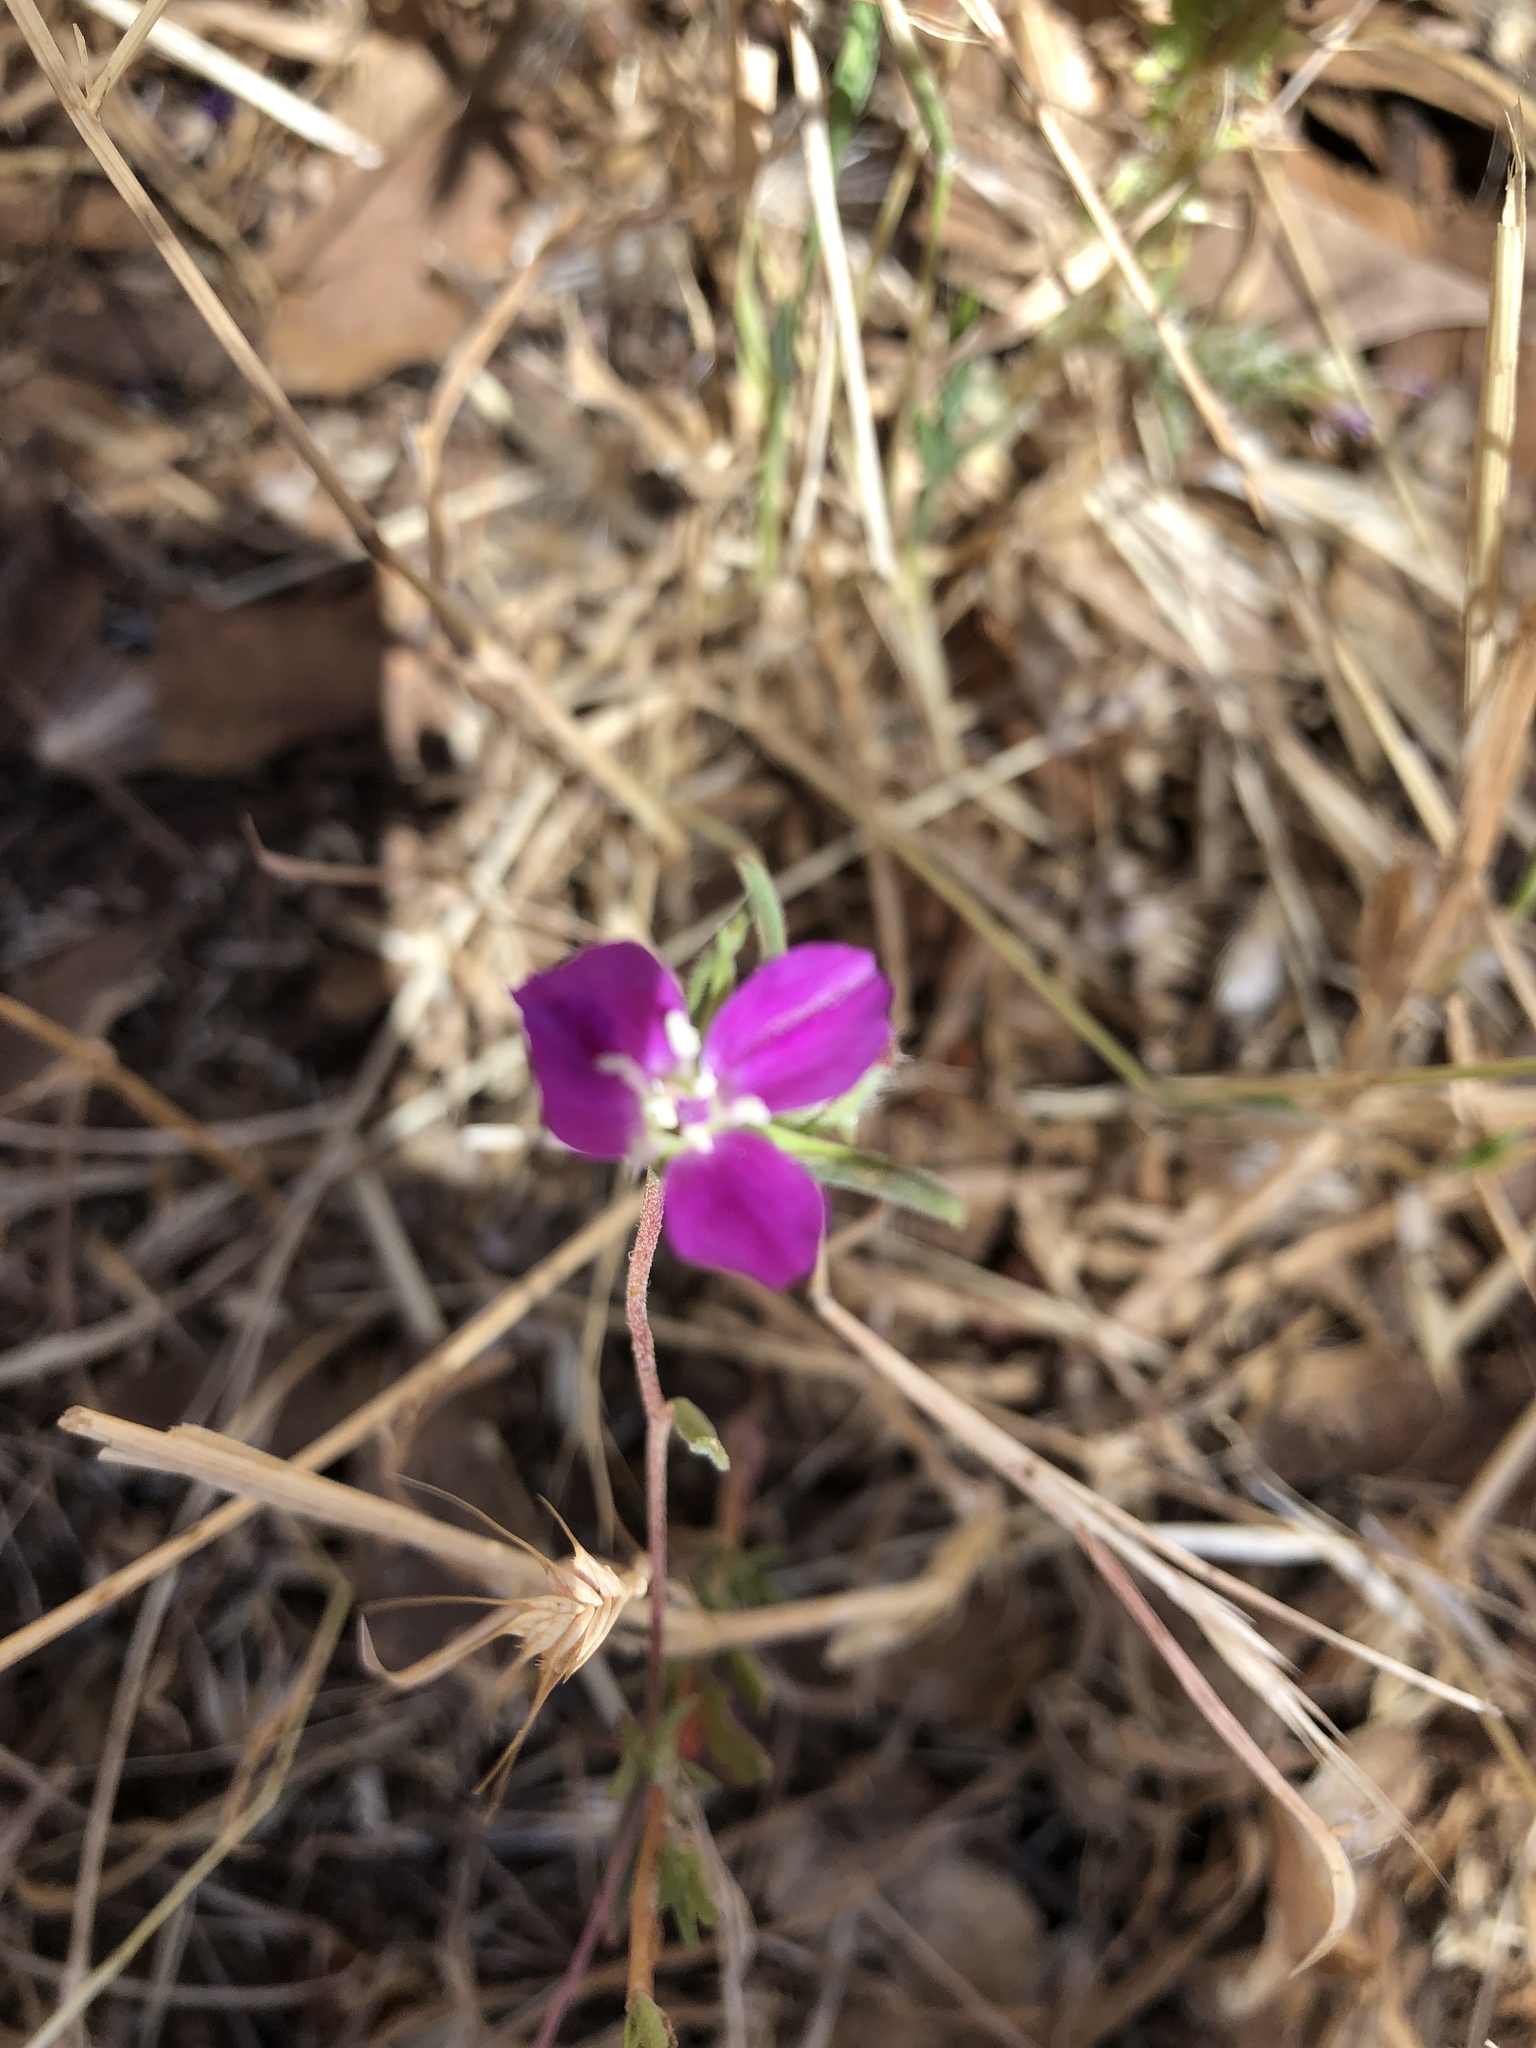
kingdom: Plantae
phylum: Tracheophyta
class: Magnoliopsida
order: Myrtales
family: Onagraceae
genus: Clarkia
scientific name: Clarkia purpurea
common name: Purple clarkia
